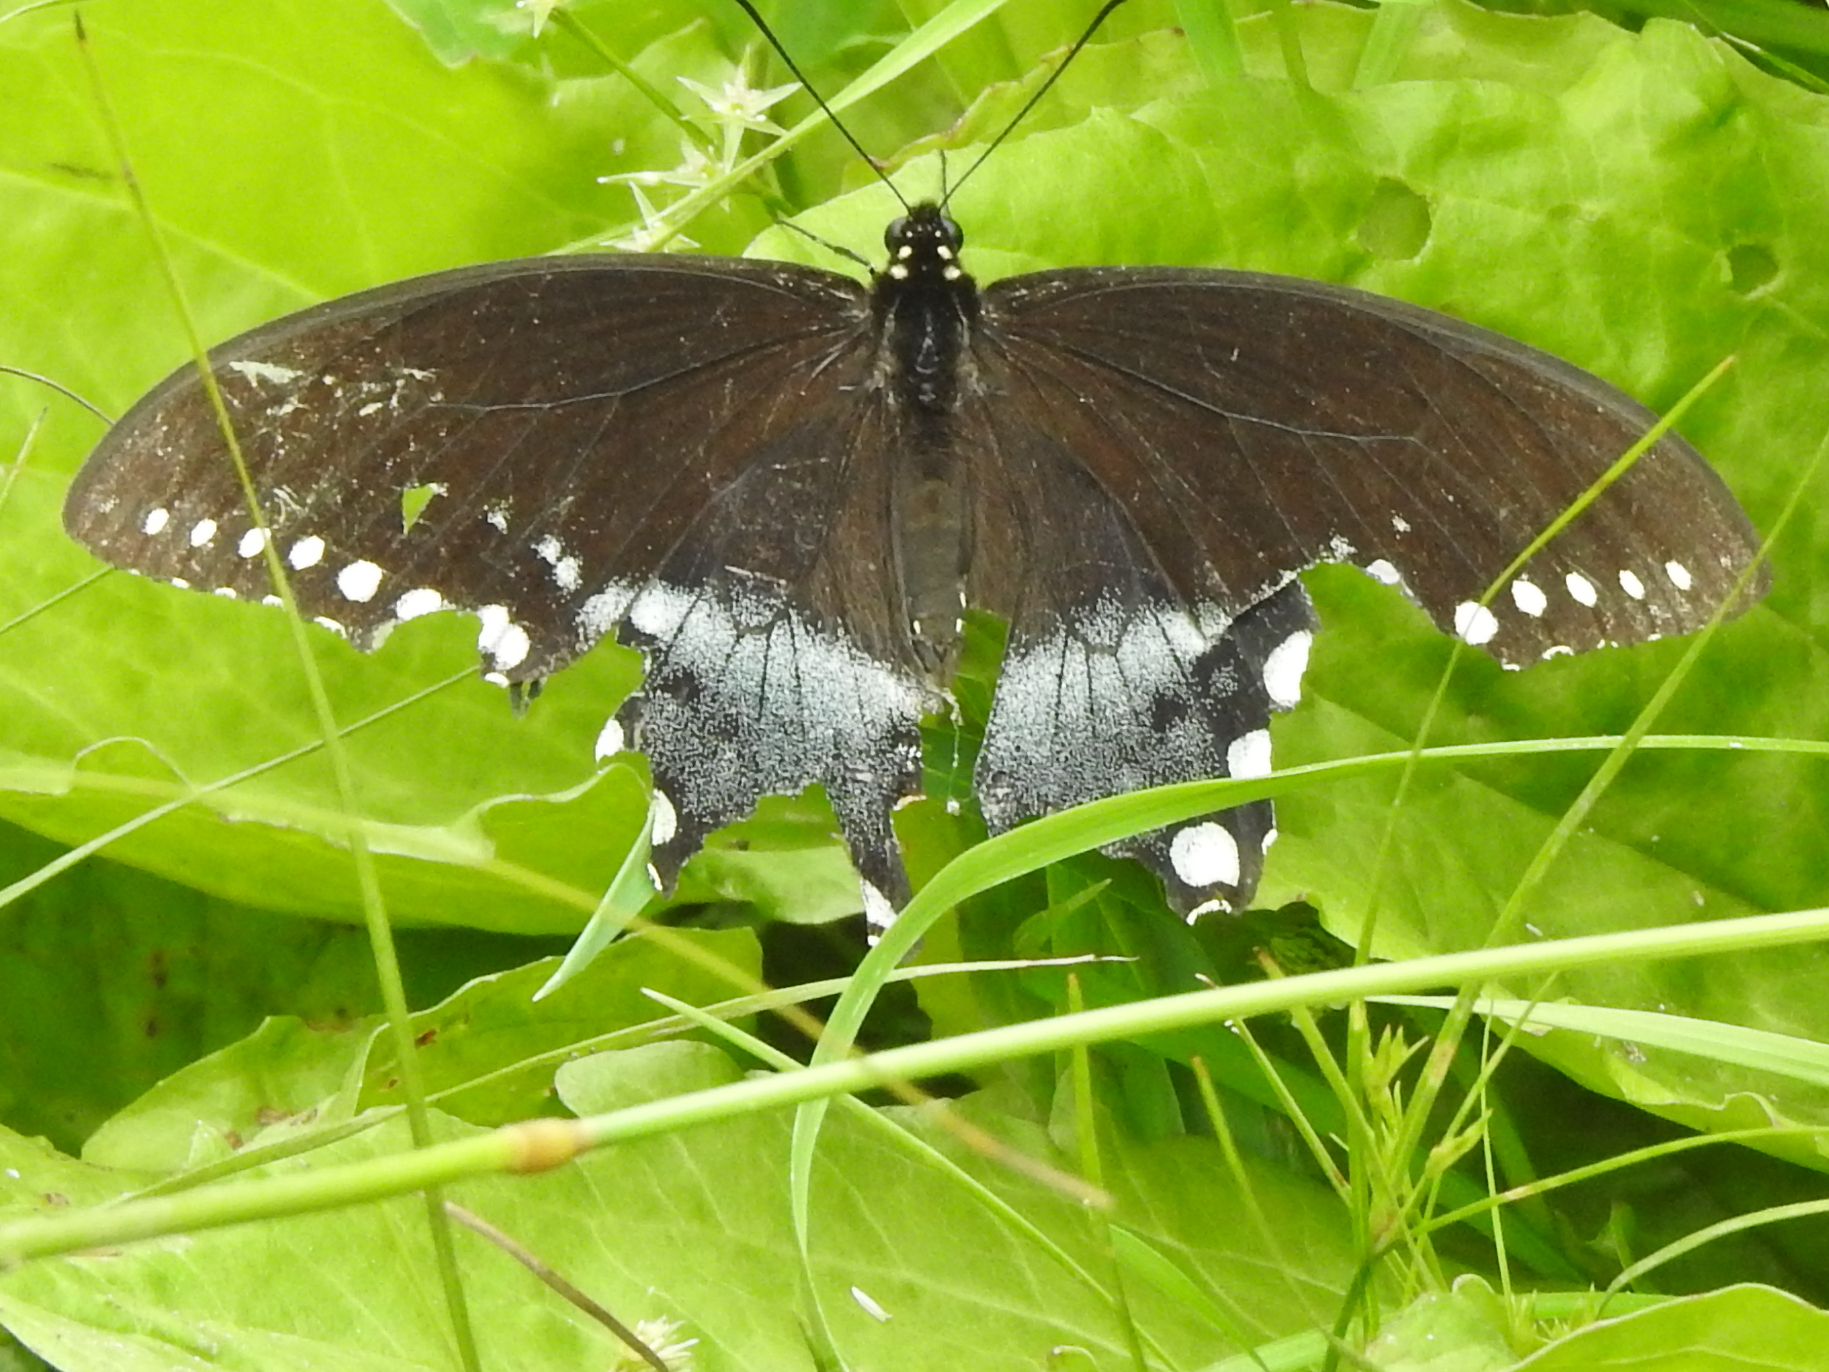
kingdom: Animalia
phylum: Arthropoda
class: Insecta
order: Lepidoptera
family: Papilionidae
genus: Papilio
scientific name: Papilio troilus
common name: Spicebush swallowtail
